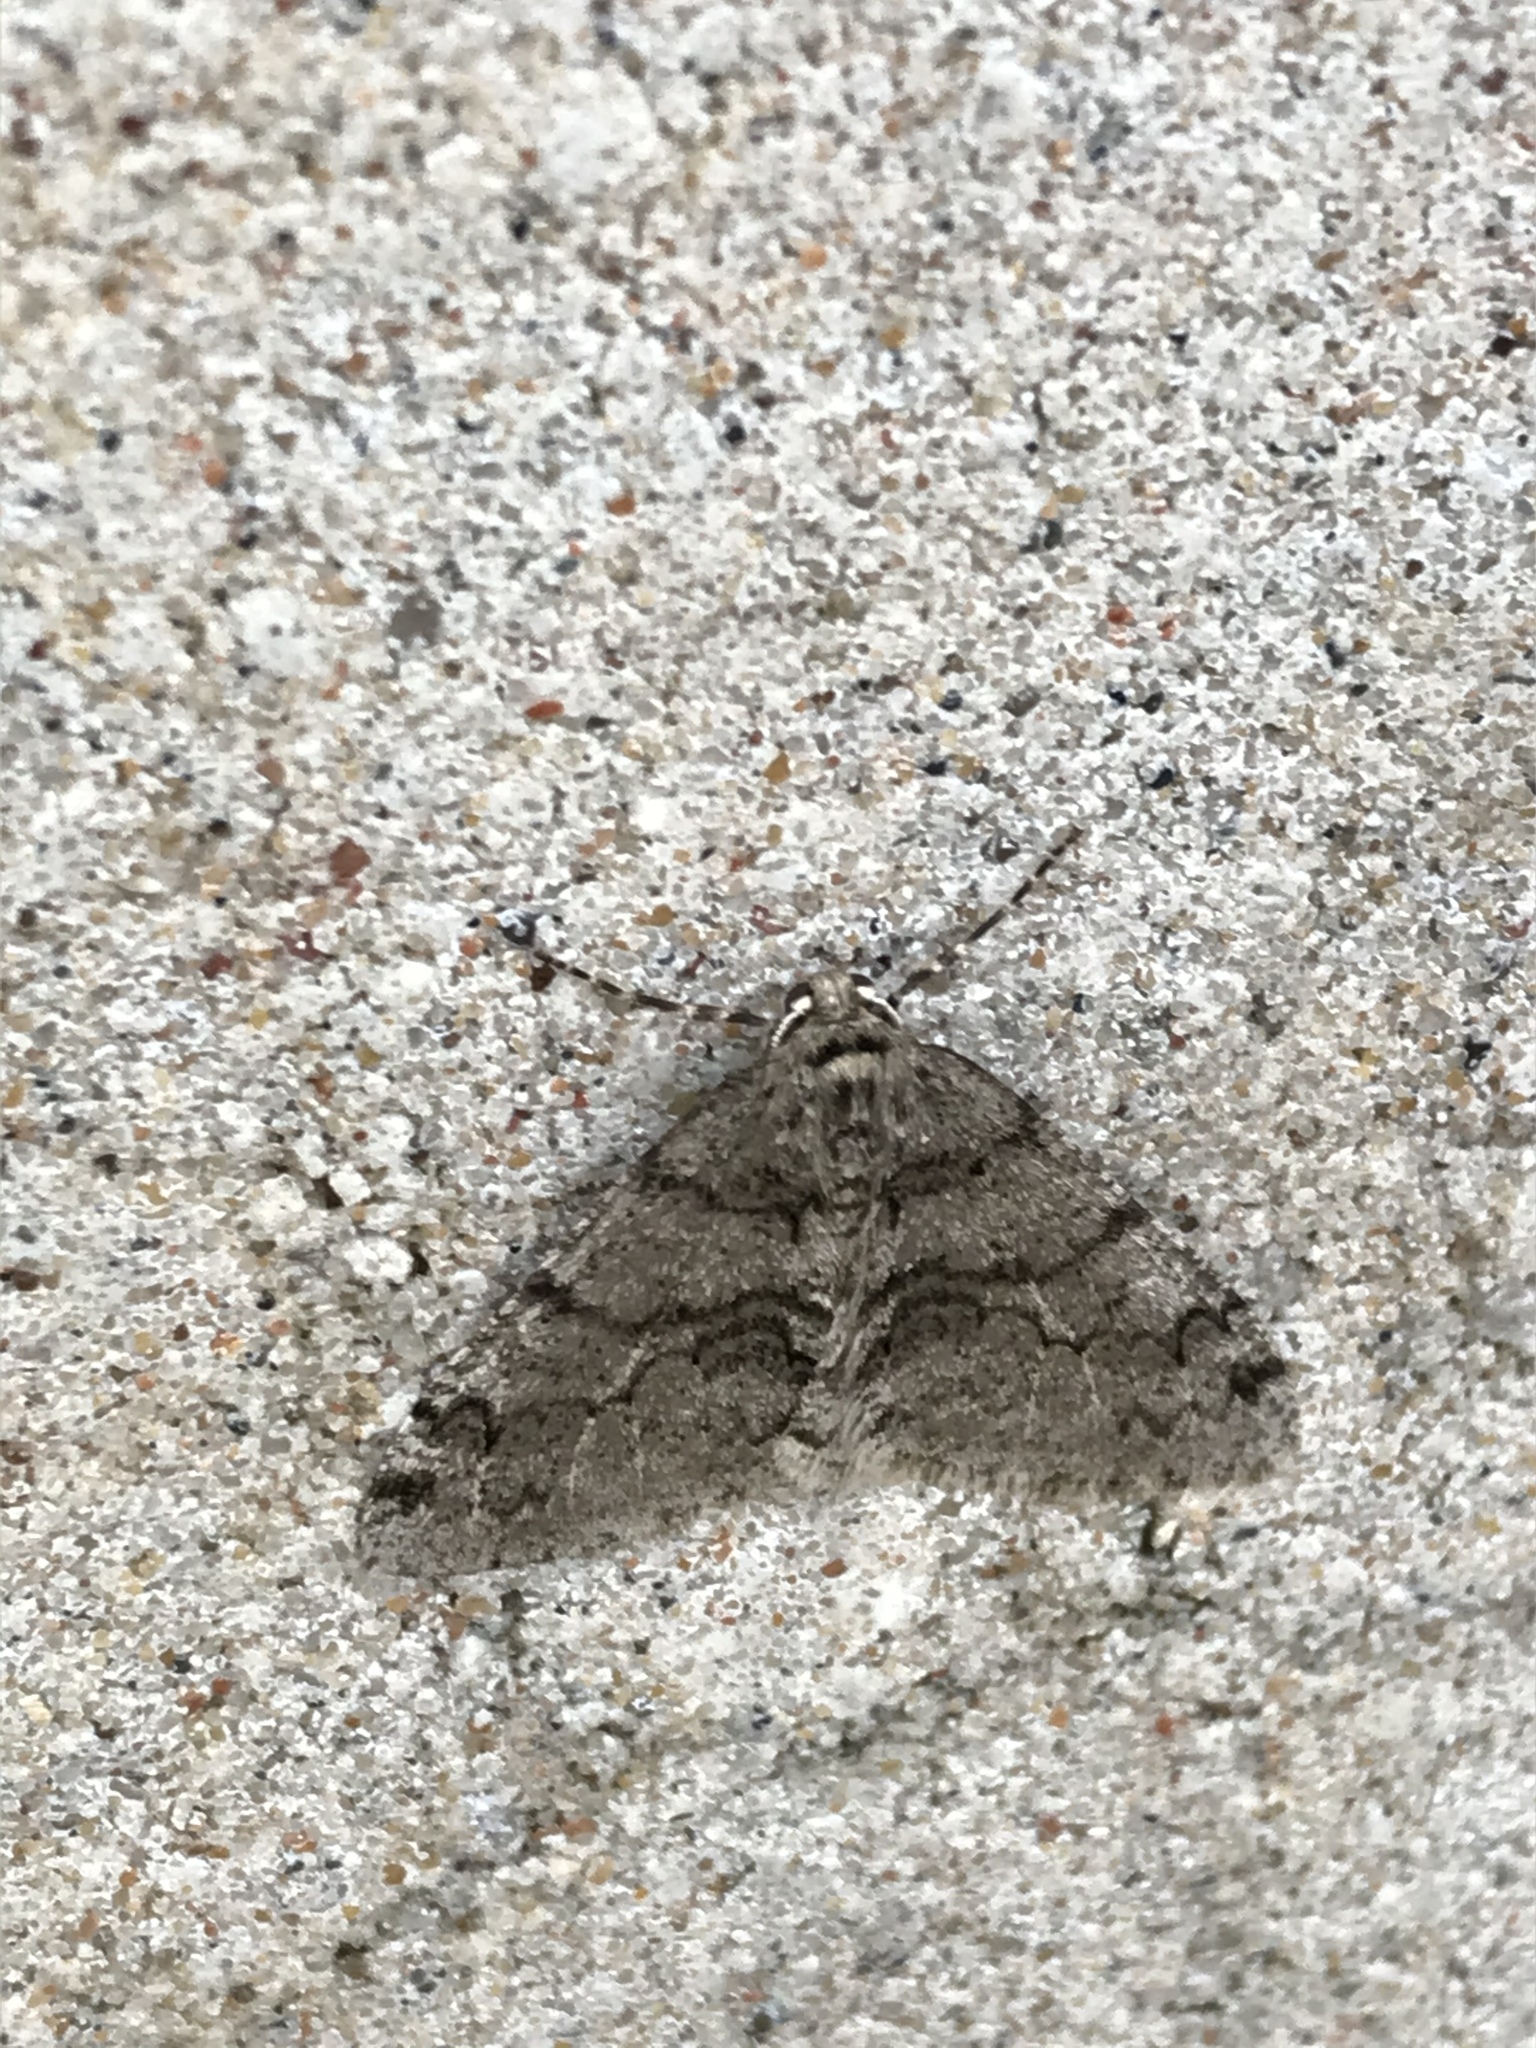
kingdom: Animalia
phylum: Arthropoda
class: Insecta
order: Lepidoptera
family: Geometridae
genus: Phigalia
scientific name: Phigalia denticulata
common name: Toothed phigalia
